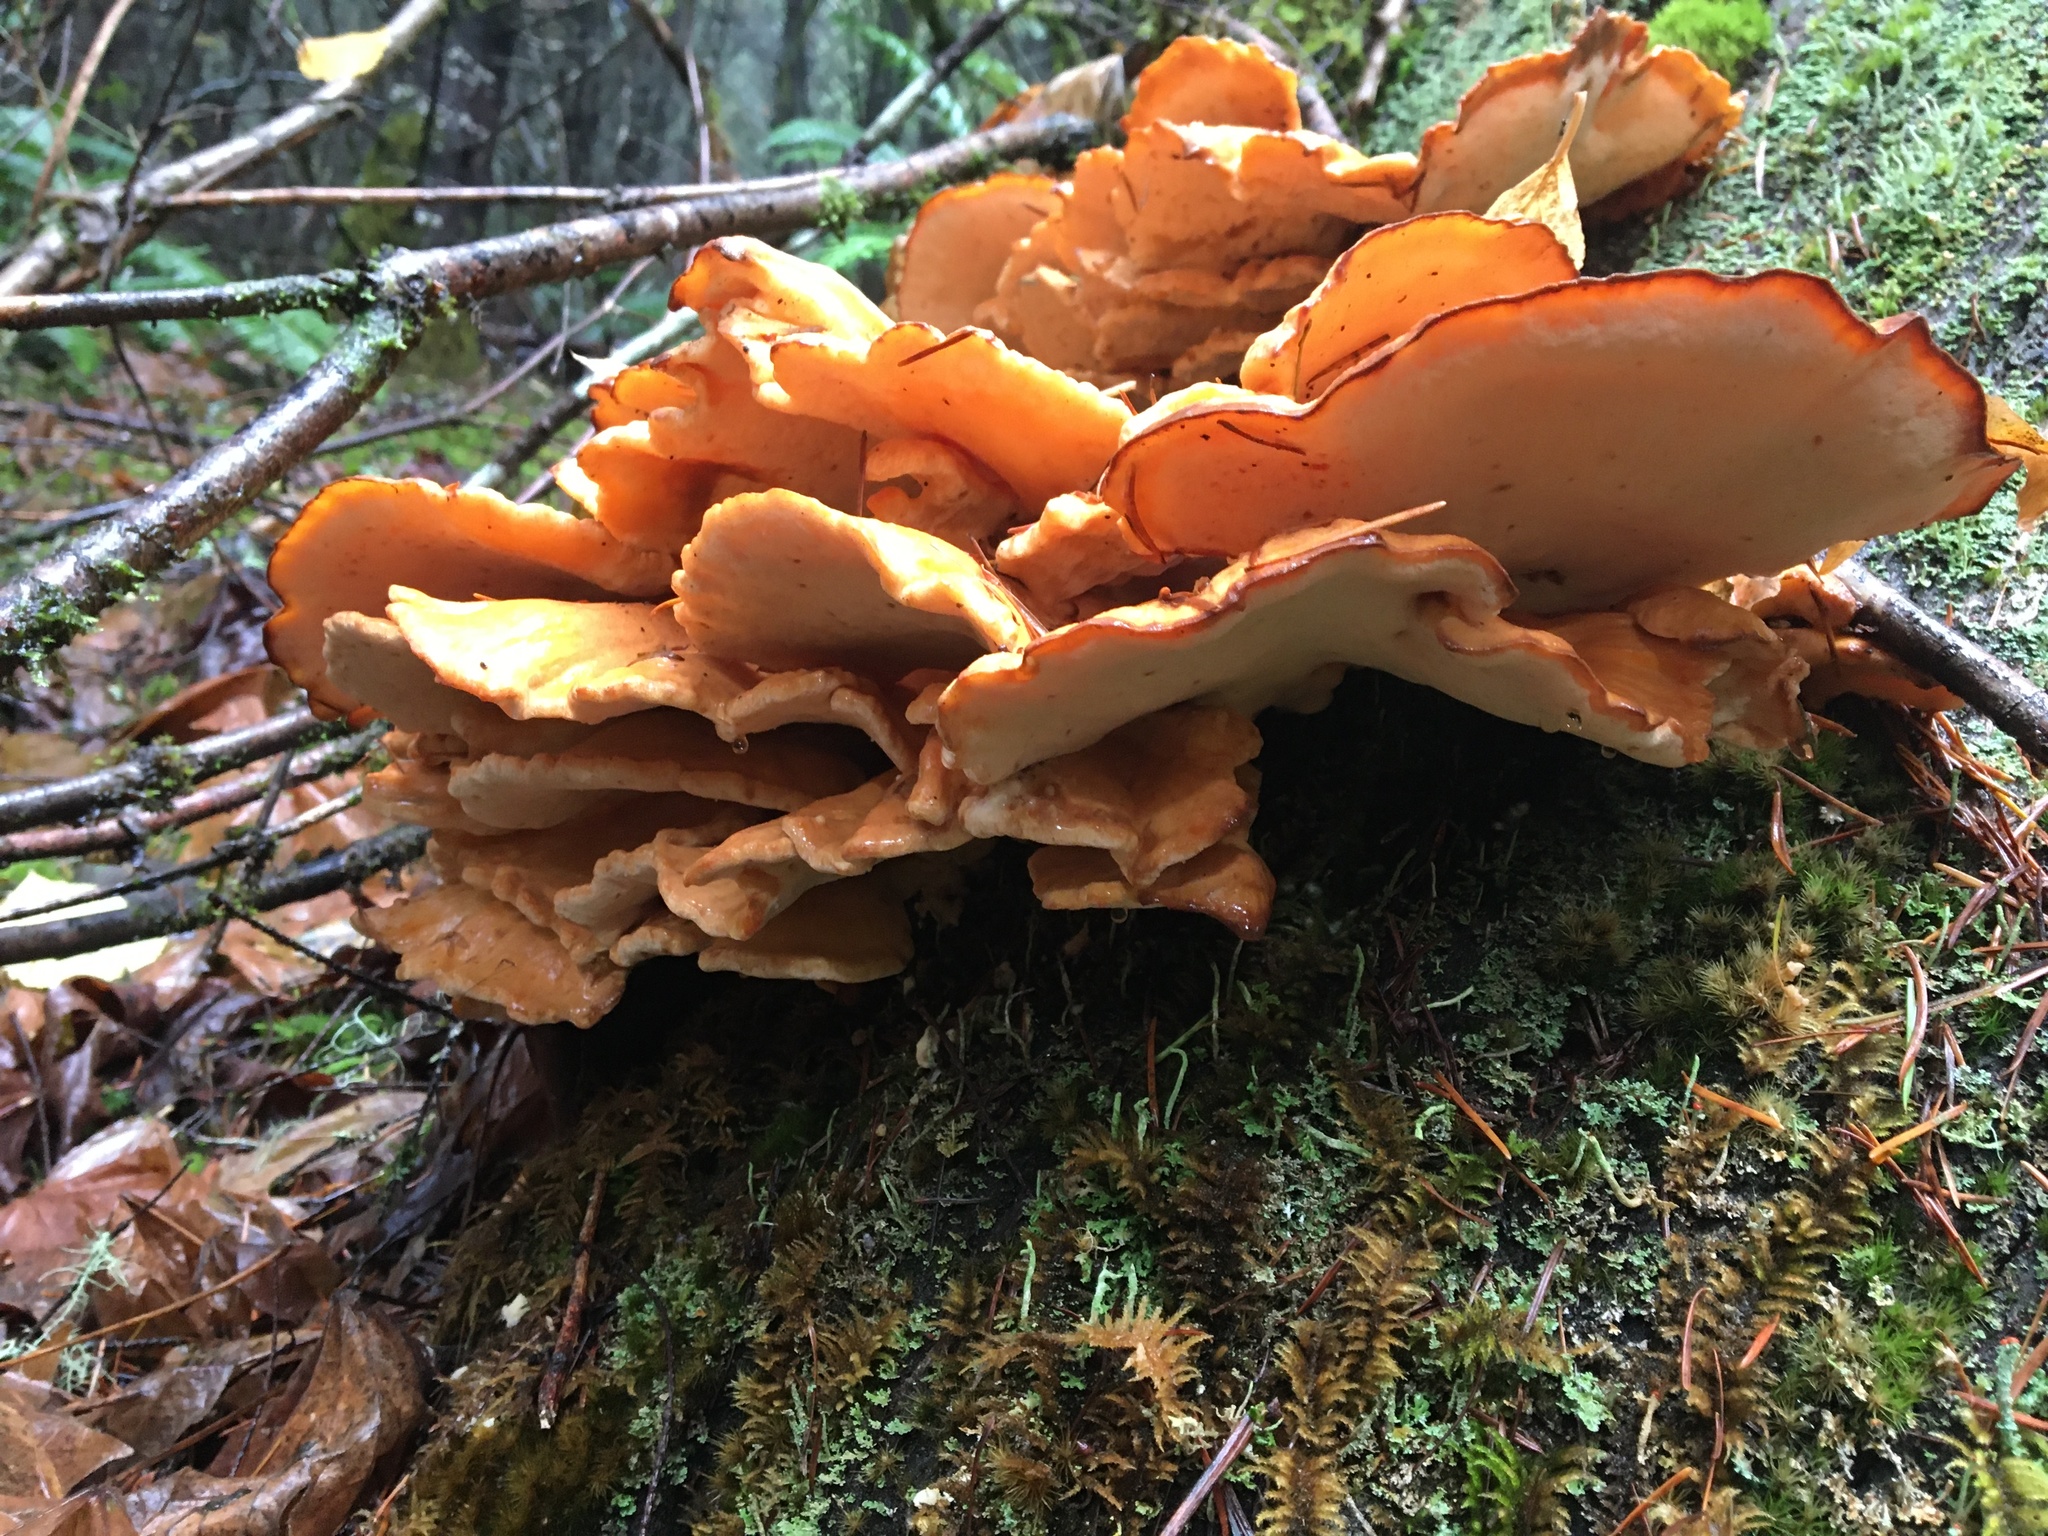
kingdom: Fungi
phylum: Basidiomycota
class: Agaricomycetes
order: Polyporales
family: Laetiporaceae
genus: Laetiporus
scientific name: Laetiporus conifericola
